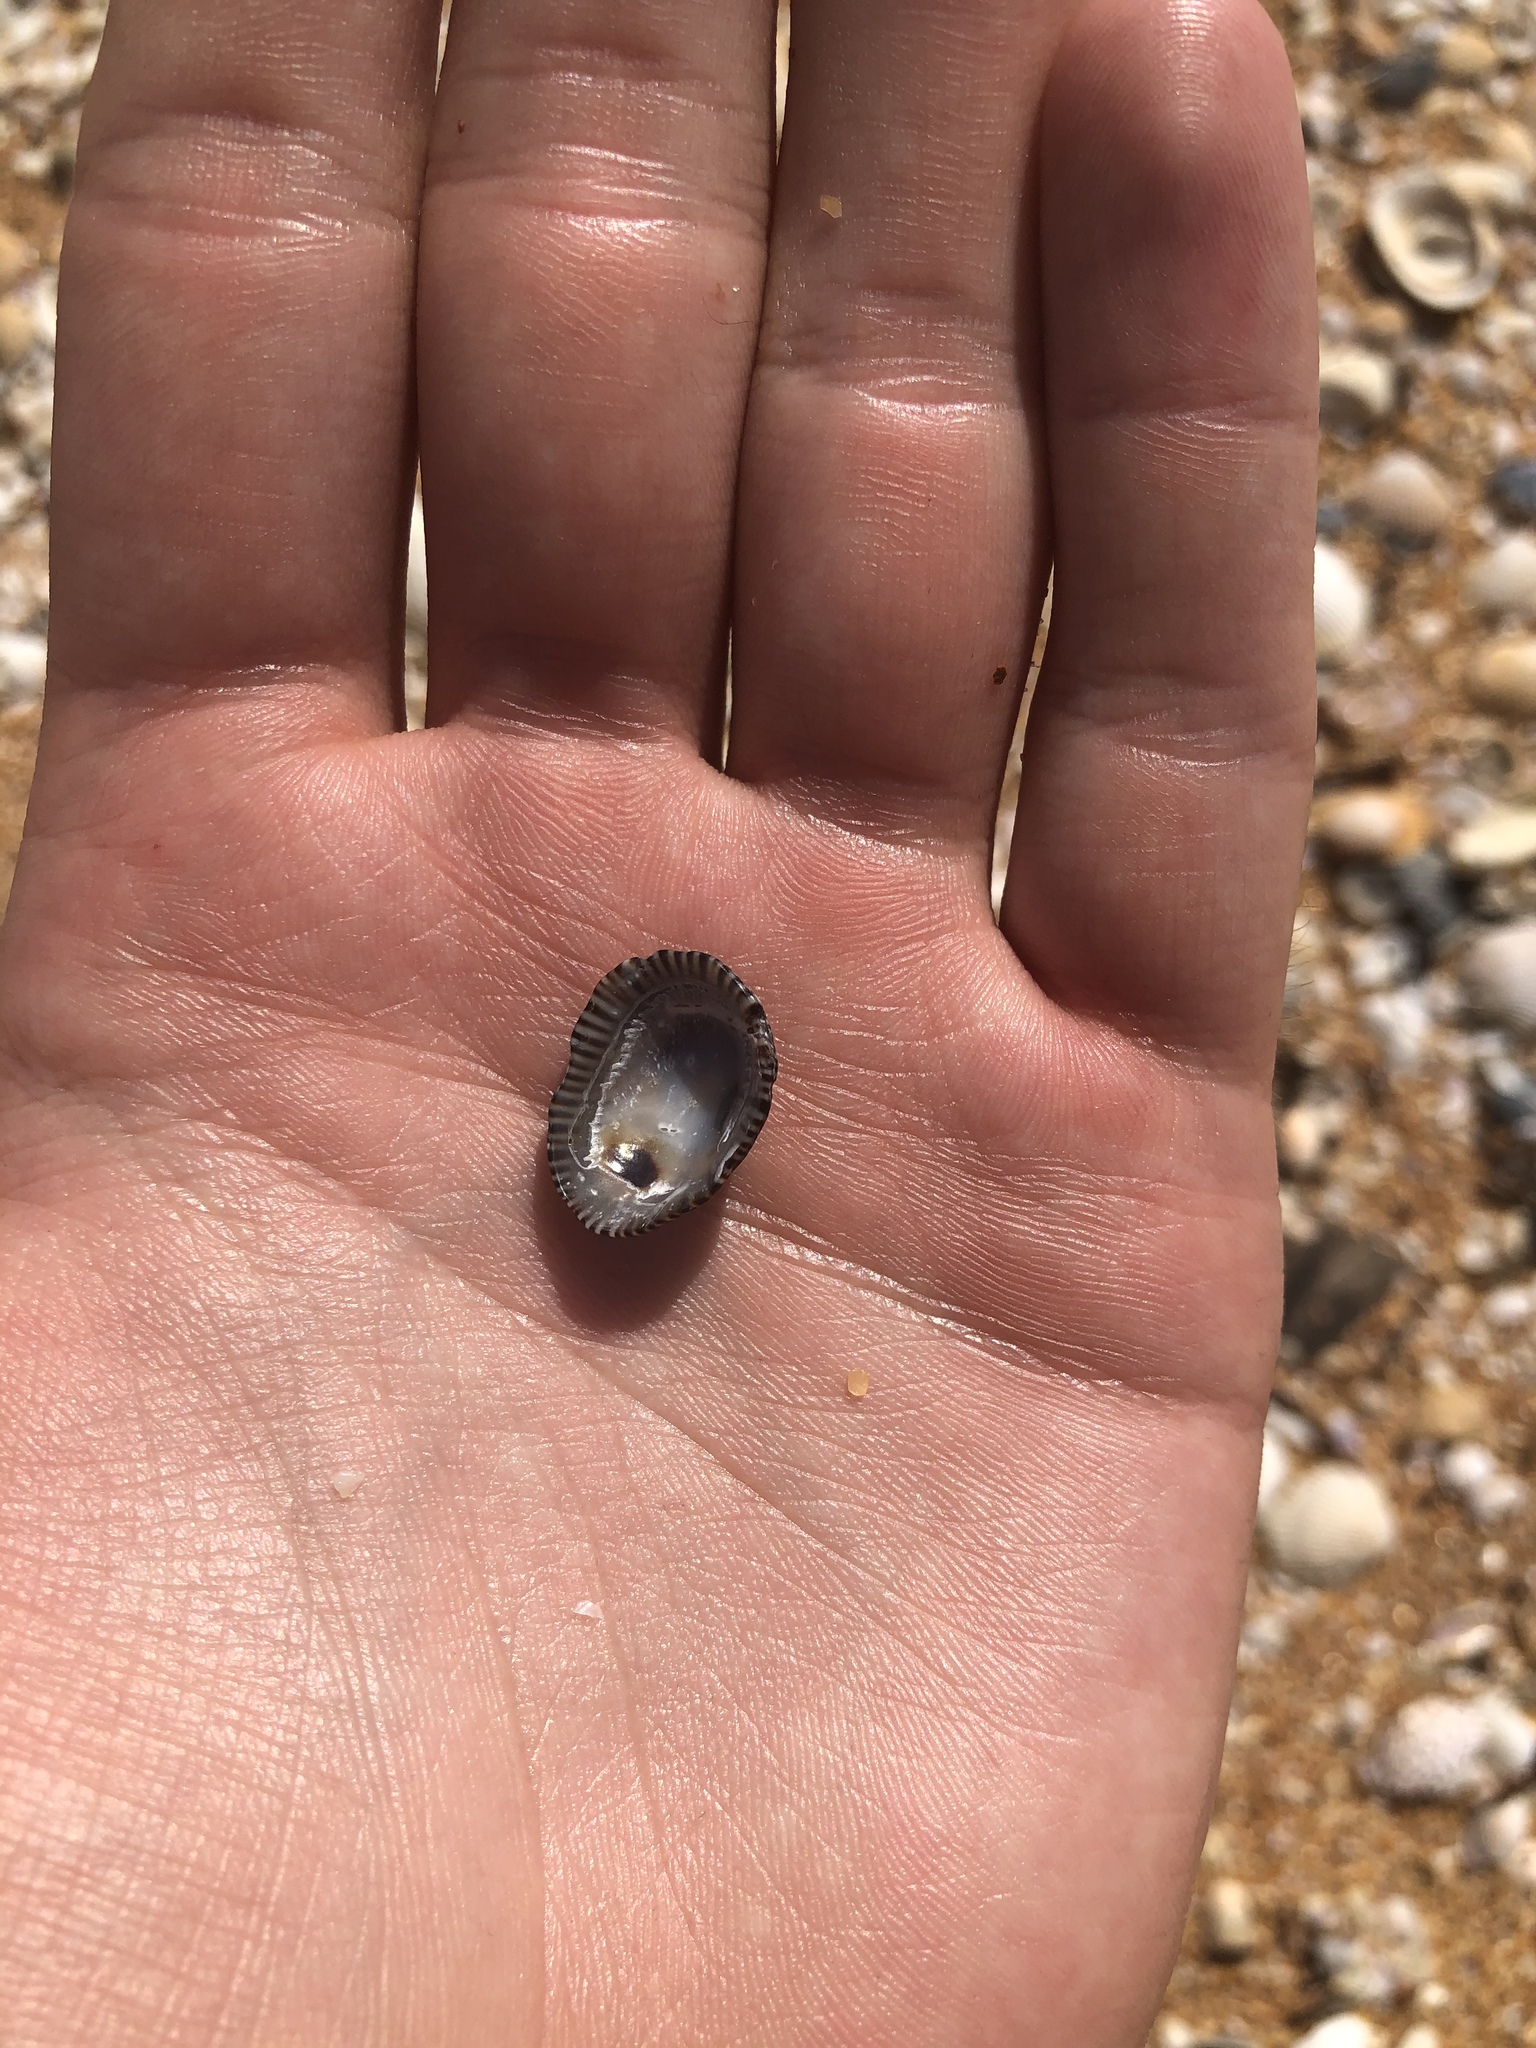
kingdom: Animalia
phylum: Mollusca
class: Gastropoda
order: Siphonariida
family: Siphonariidae
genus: Siphonaria
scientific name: Siphonaria naufragum
